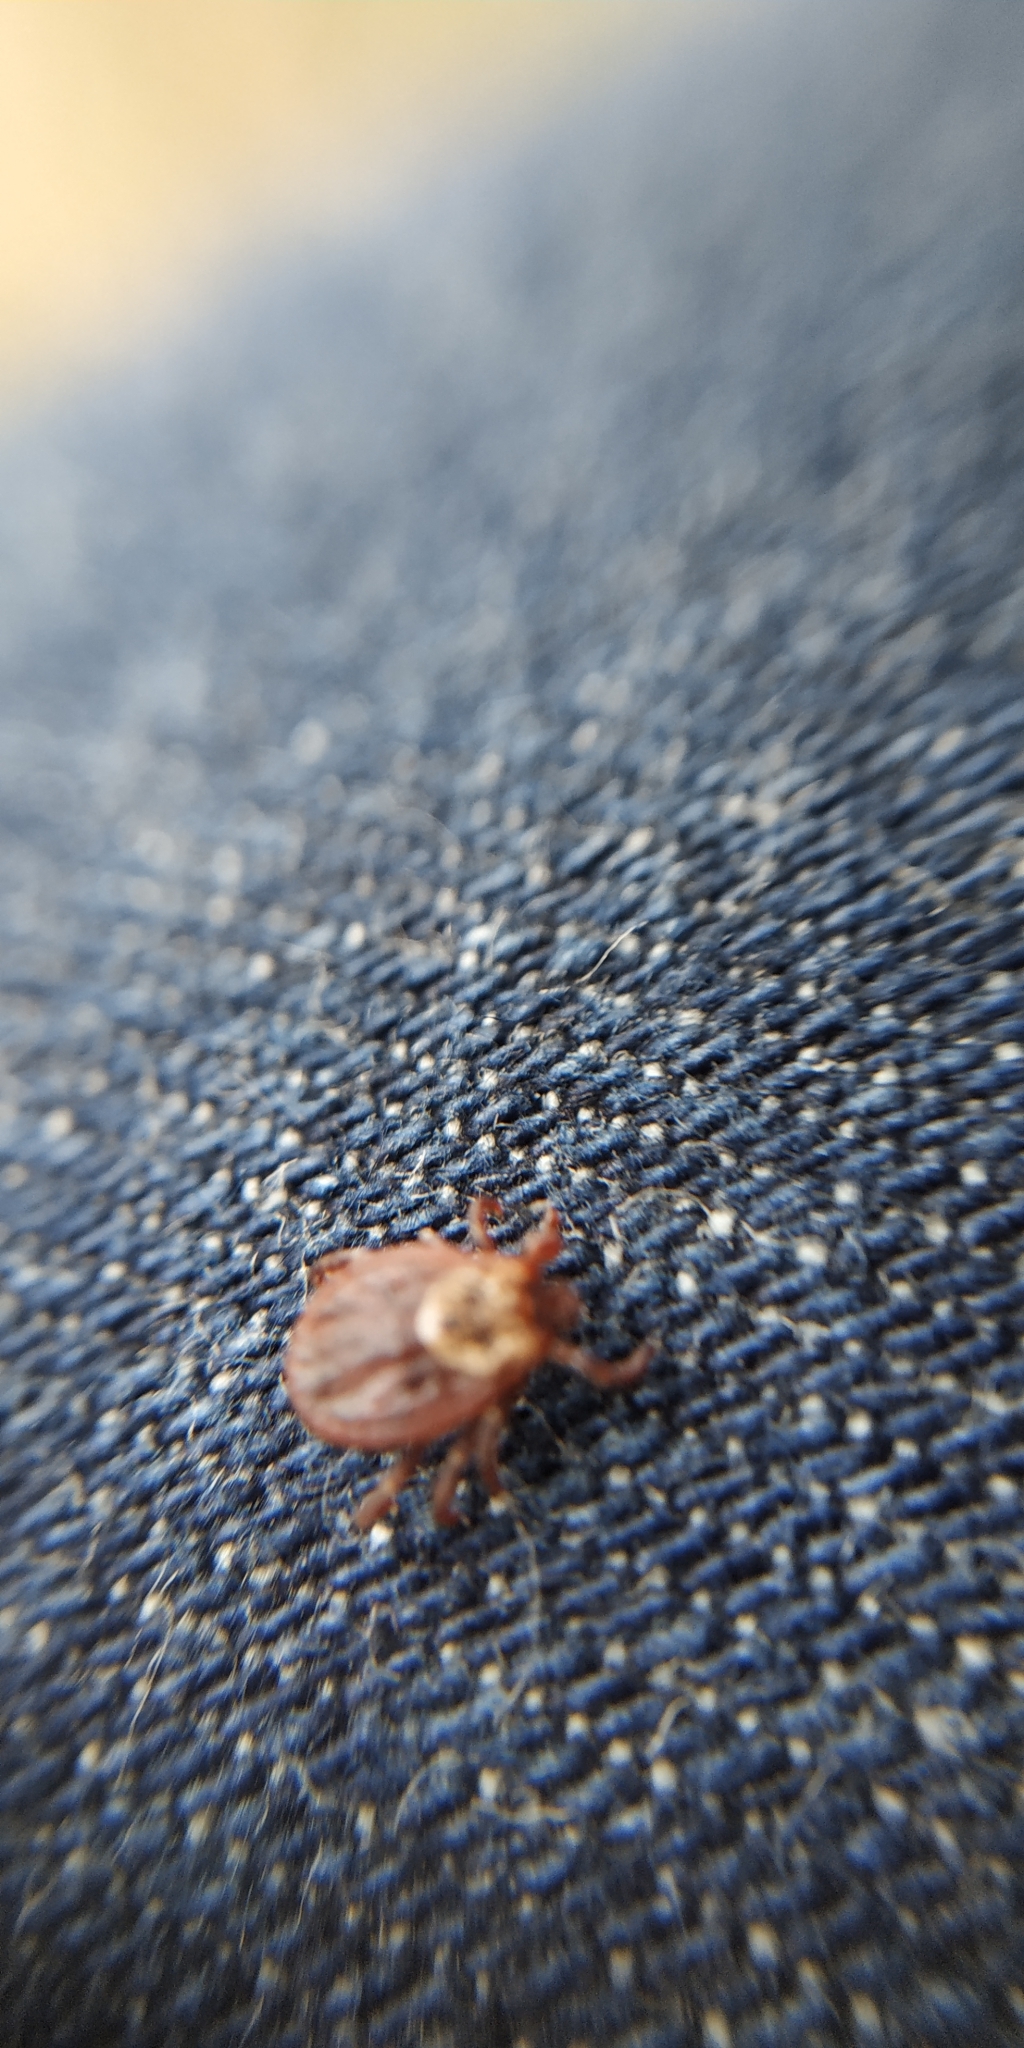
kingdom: Animalia
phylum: Arthropoda
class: Arachnida
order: Ixodida
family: Ixodidae
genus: Dermacentor
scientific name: Dermacentor reticulatus
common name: Ornate cow tick
